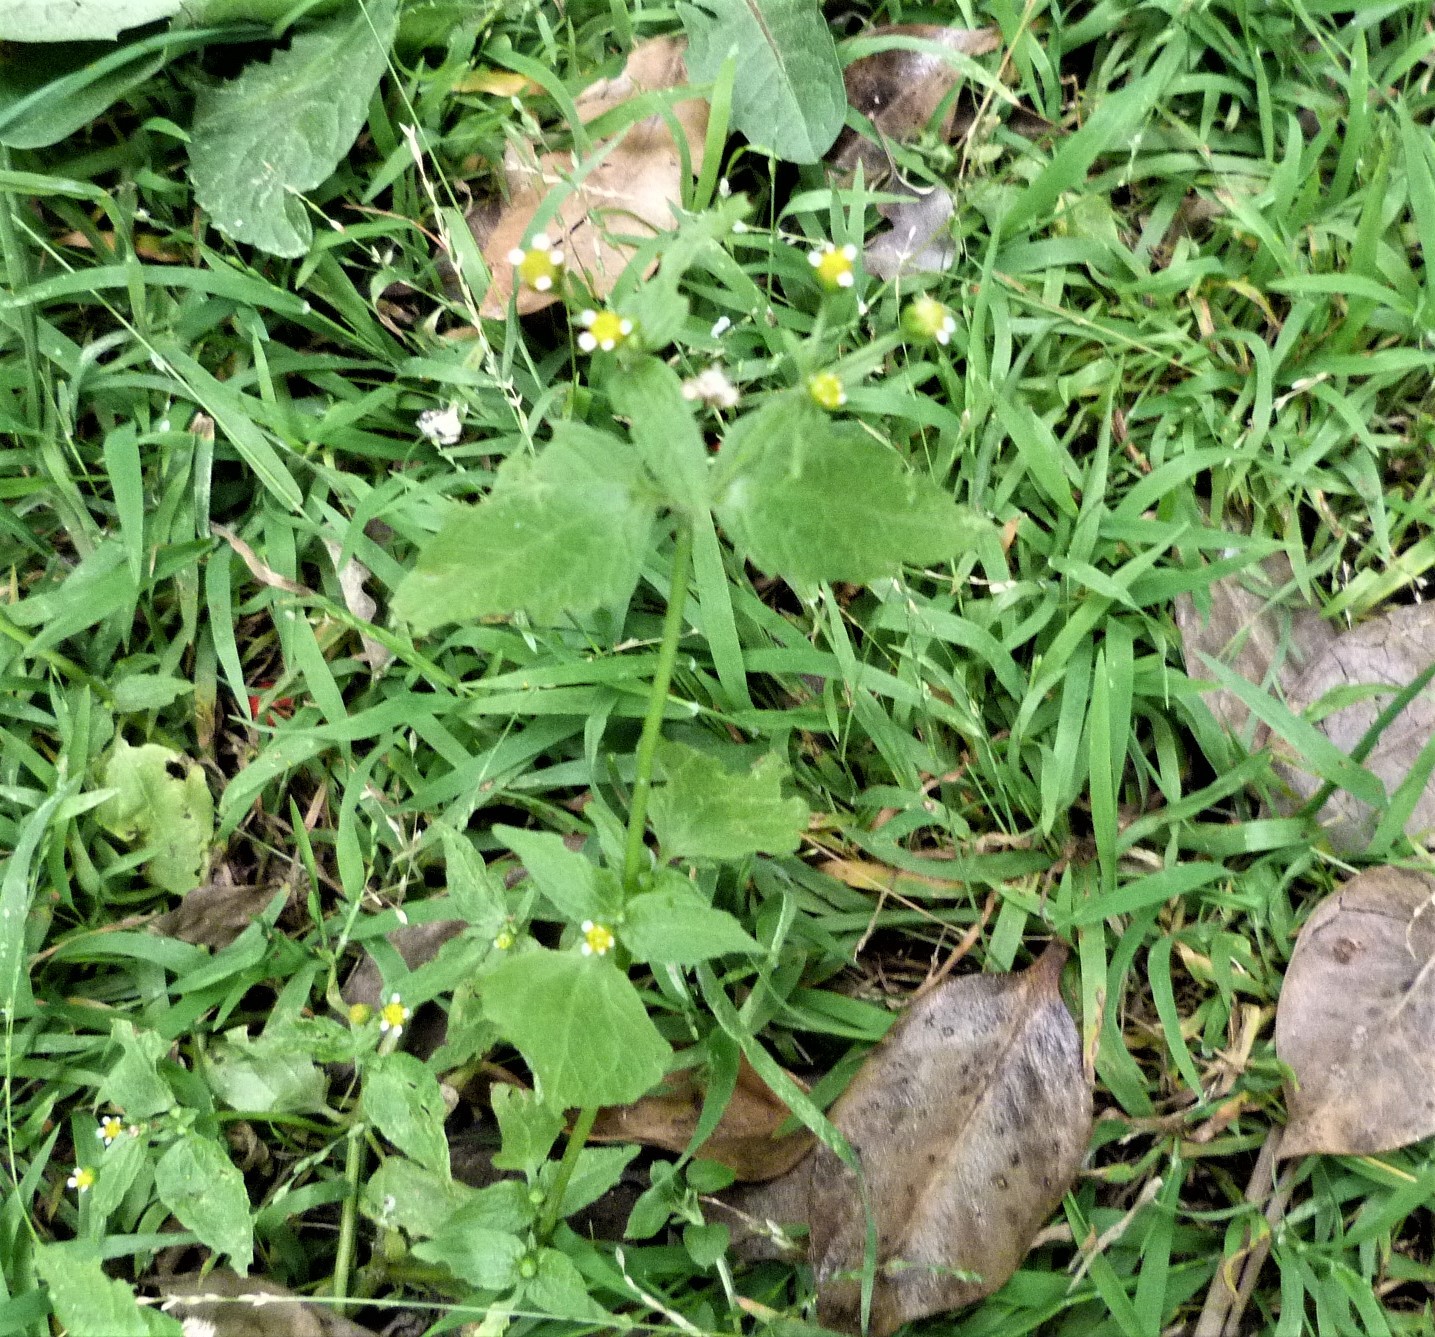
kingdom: Plantae
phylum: Tracheophyta
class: Magnoliopsida
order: Asterales
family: Asteraceae
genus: Galinsoga
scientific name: Galinsoga parviflora
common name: Gallant soldier
